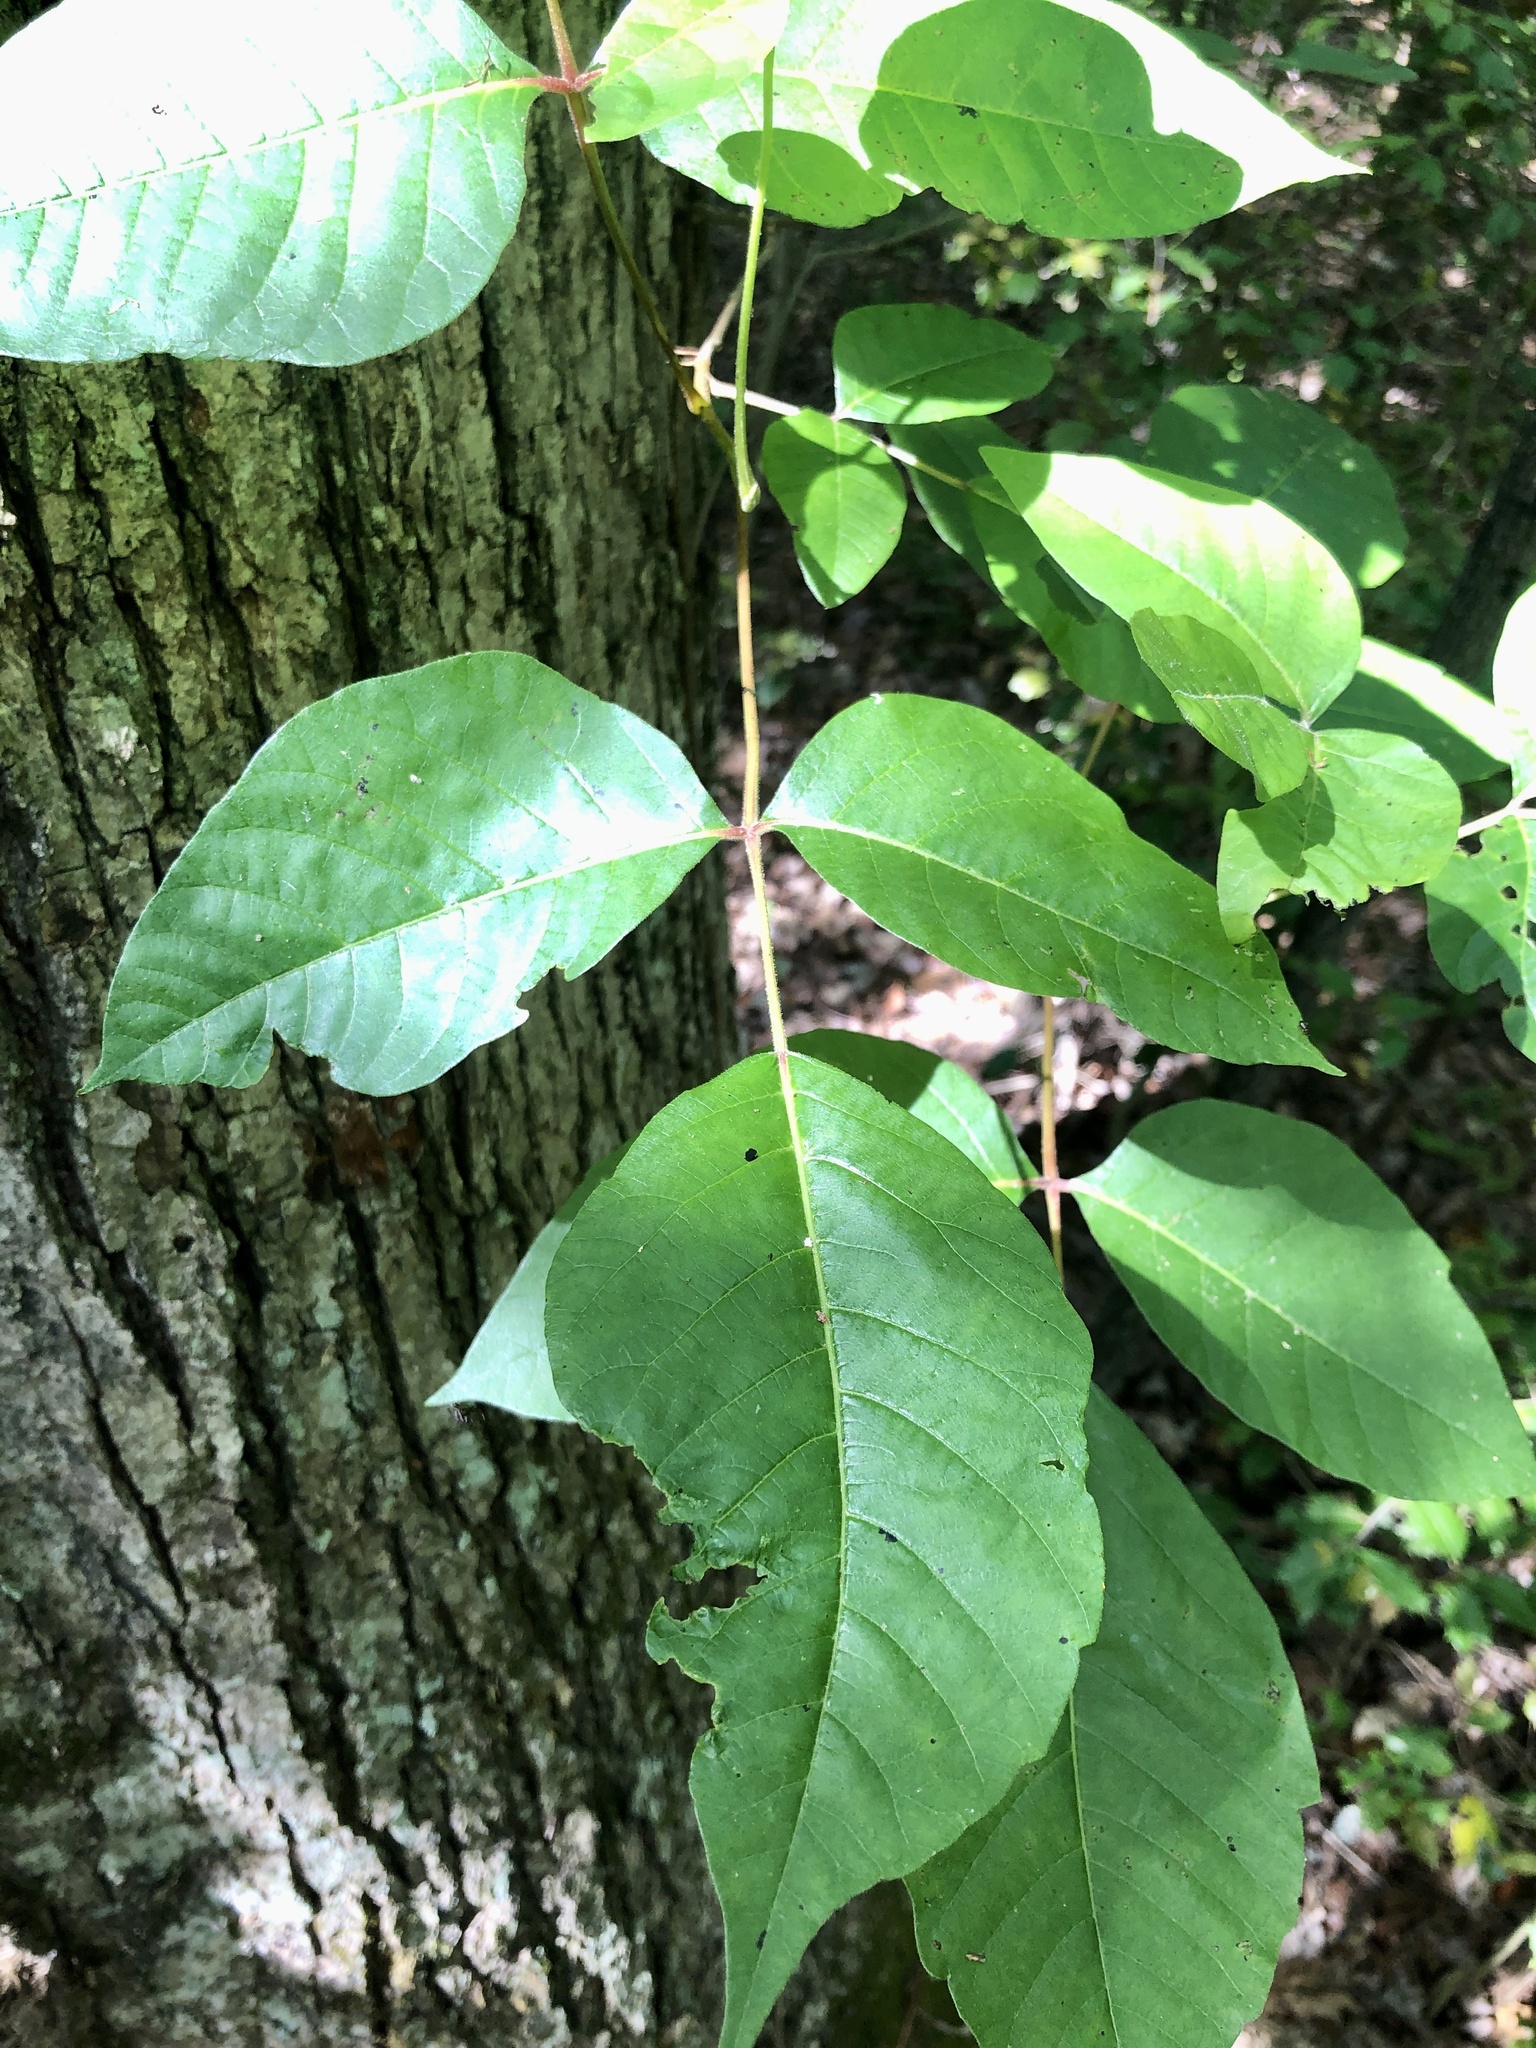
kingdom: Plantae
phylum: Tracheophyta
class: Magnoliopsida
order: Sapindales
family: Anacardiaceae
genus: Toxicodendron
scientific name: Toxicodendron radicans
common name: Poison ivy
